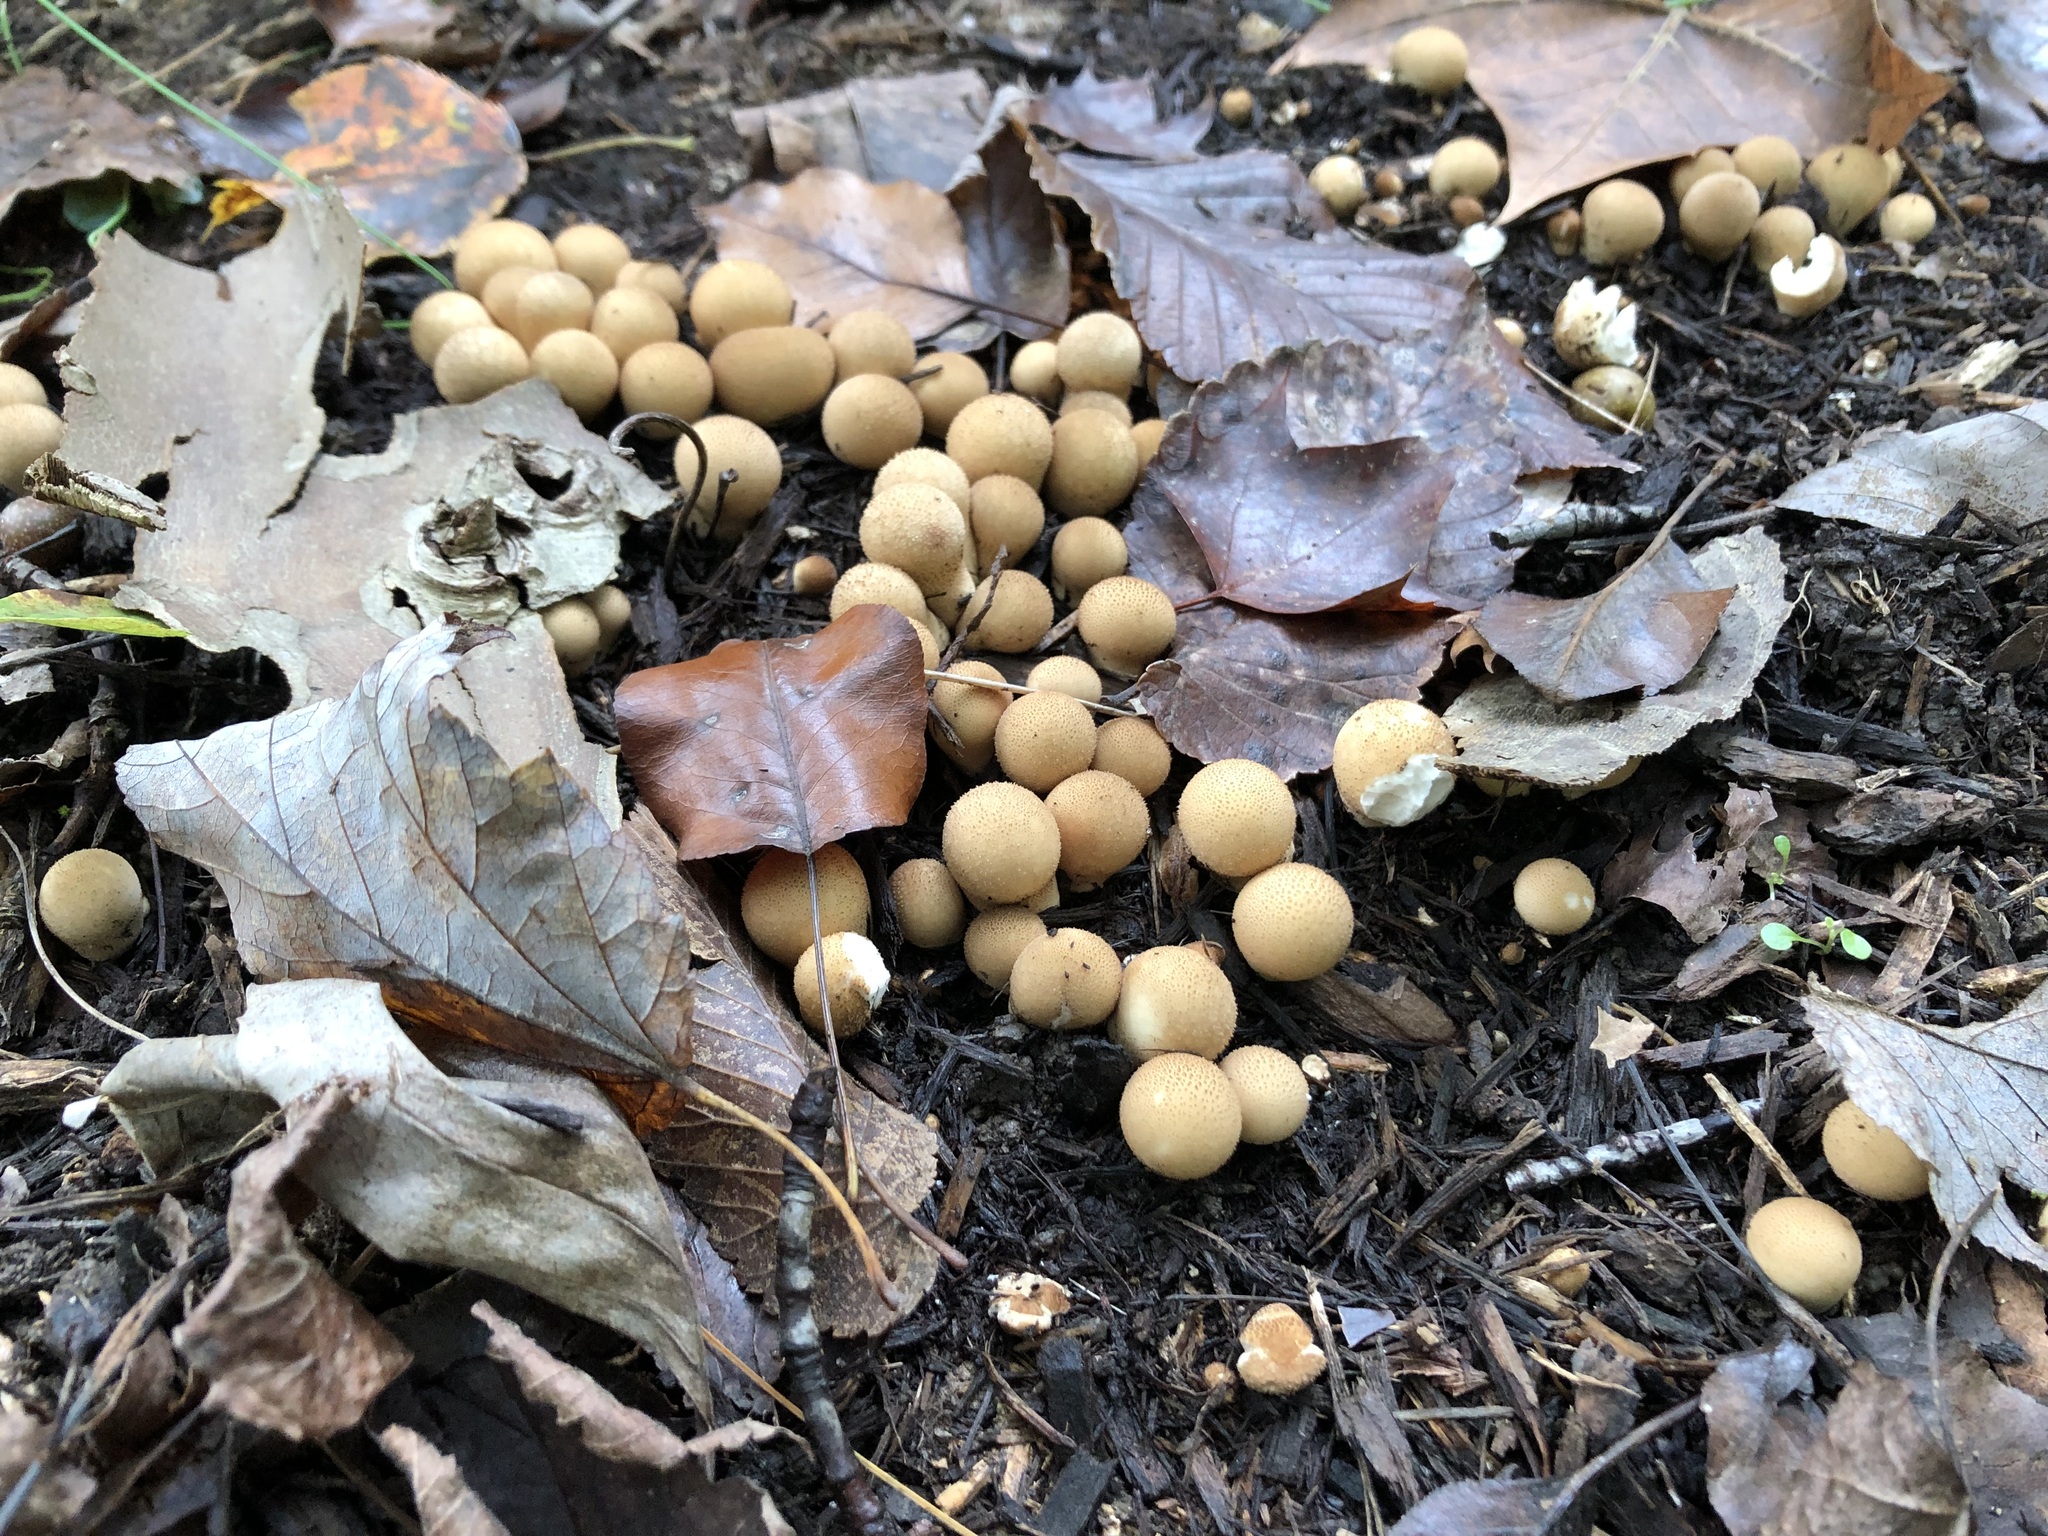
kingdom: Fungi
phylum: Basidiomycota
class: Agaricomycetes
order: Agaricales
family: Lycoperdaceae
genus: Apioperdon
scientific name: Apioperdon pyriforme
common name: Pear-shaped puffball
